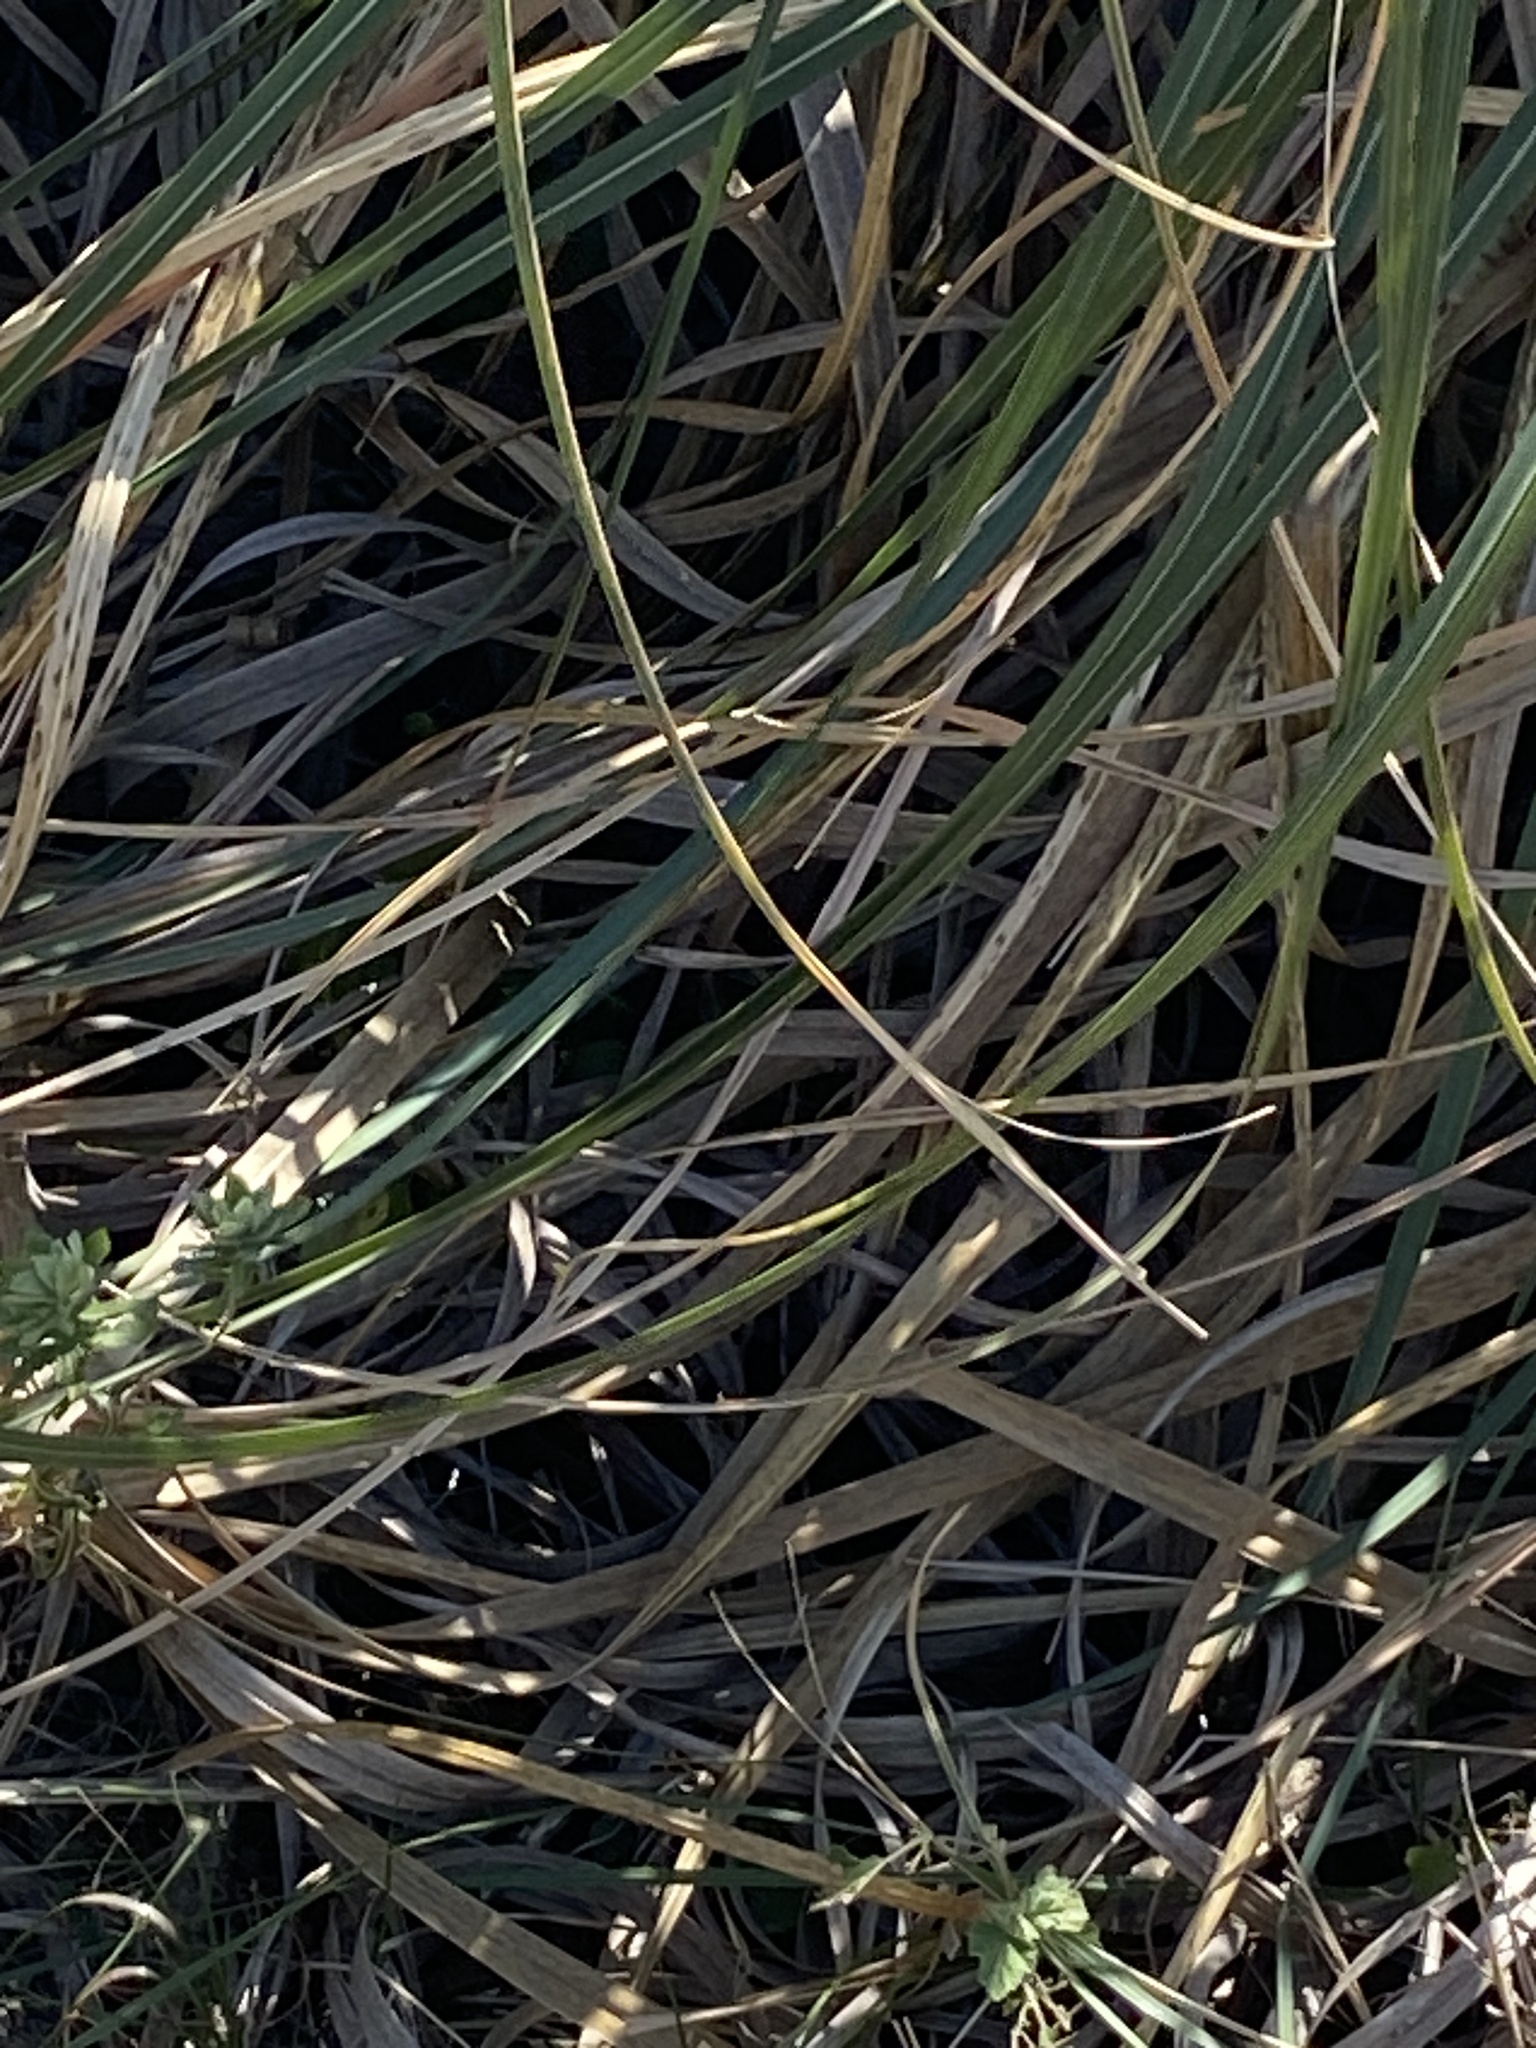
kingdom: Plantae
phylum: Tracheophyta
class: Liliopsida
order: Poales
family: Poaceae
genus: Cortaderia
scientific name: Cortaderia selloana
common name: Uruguayan pampas grass
